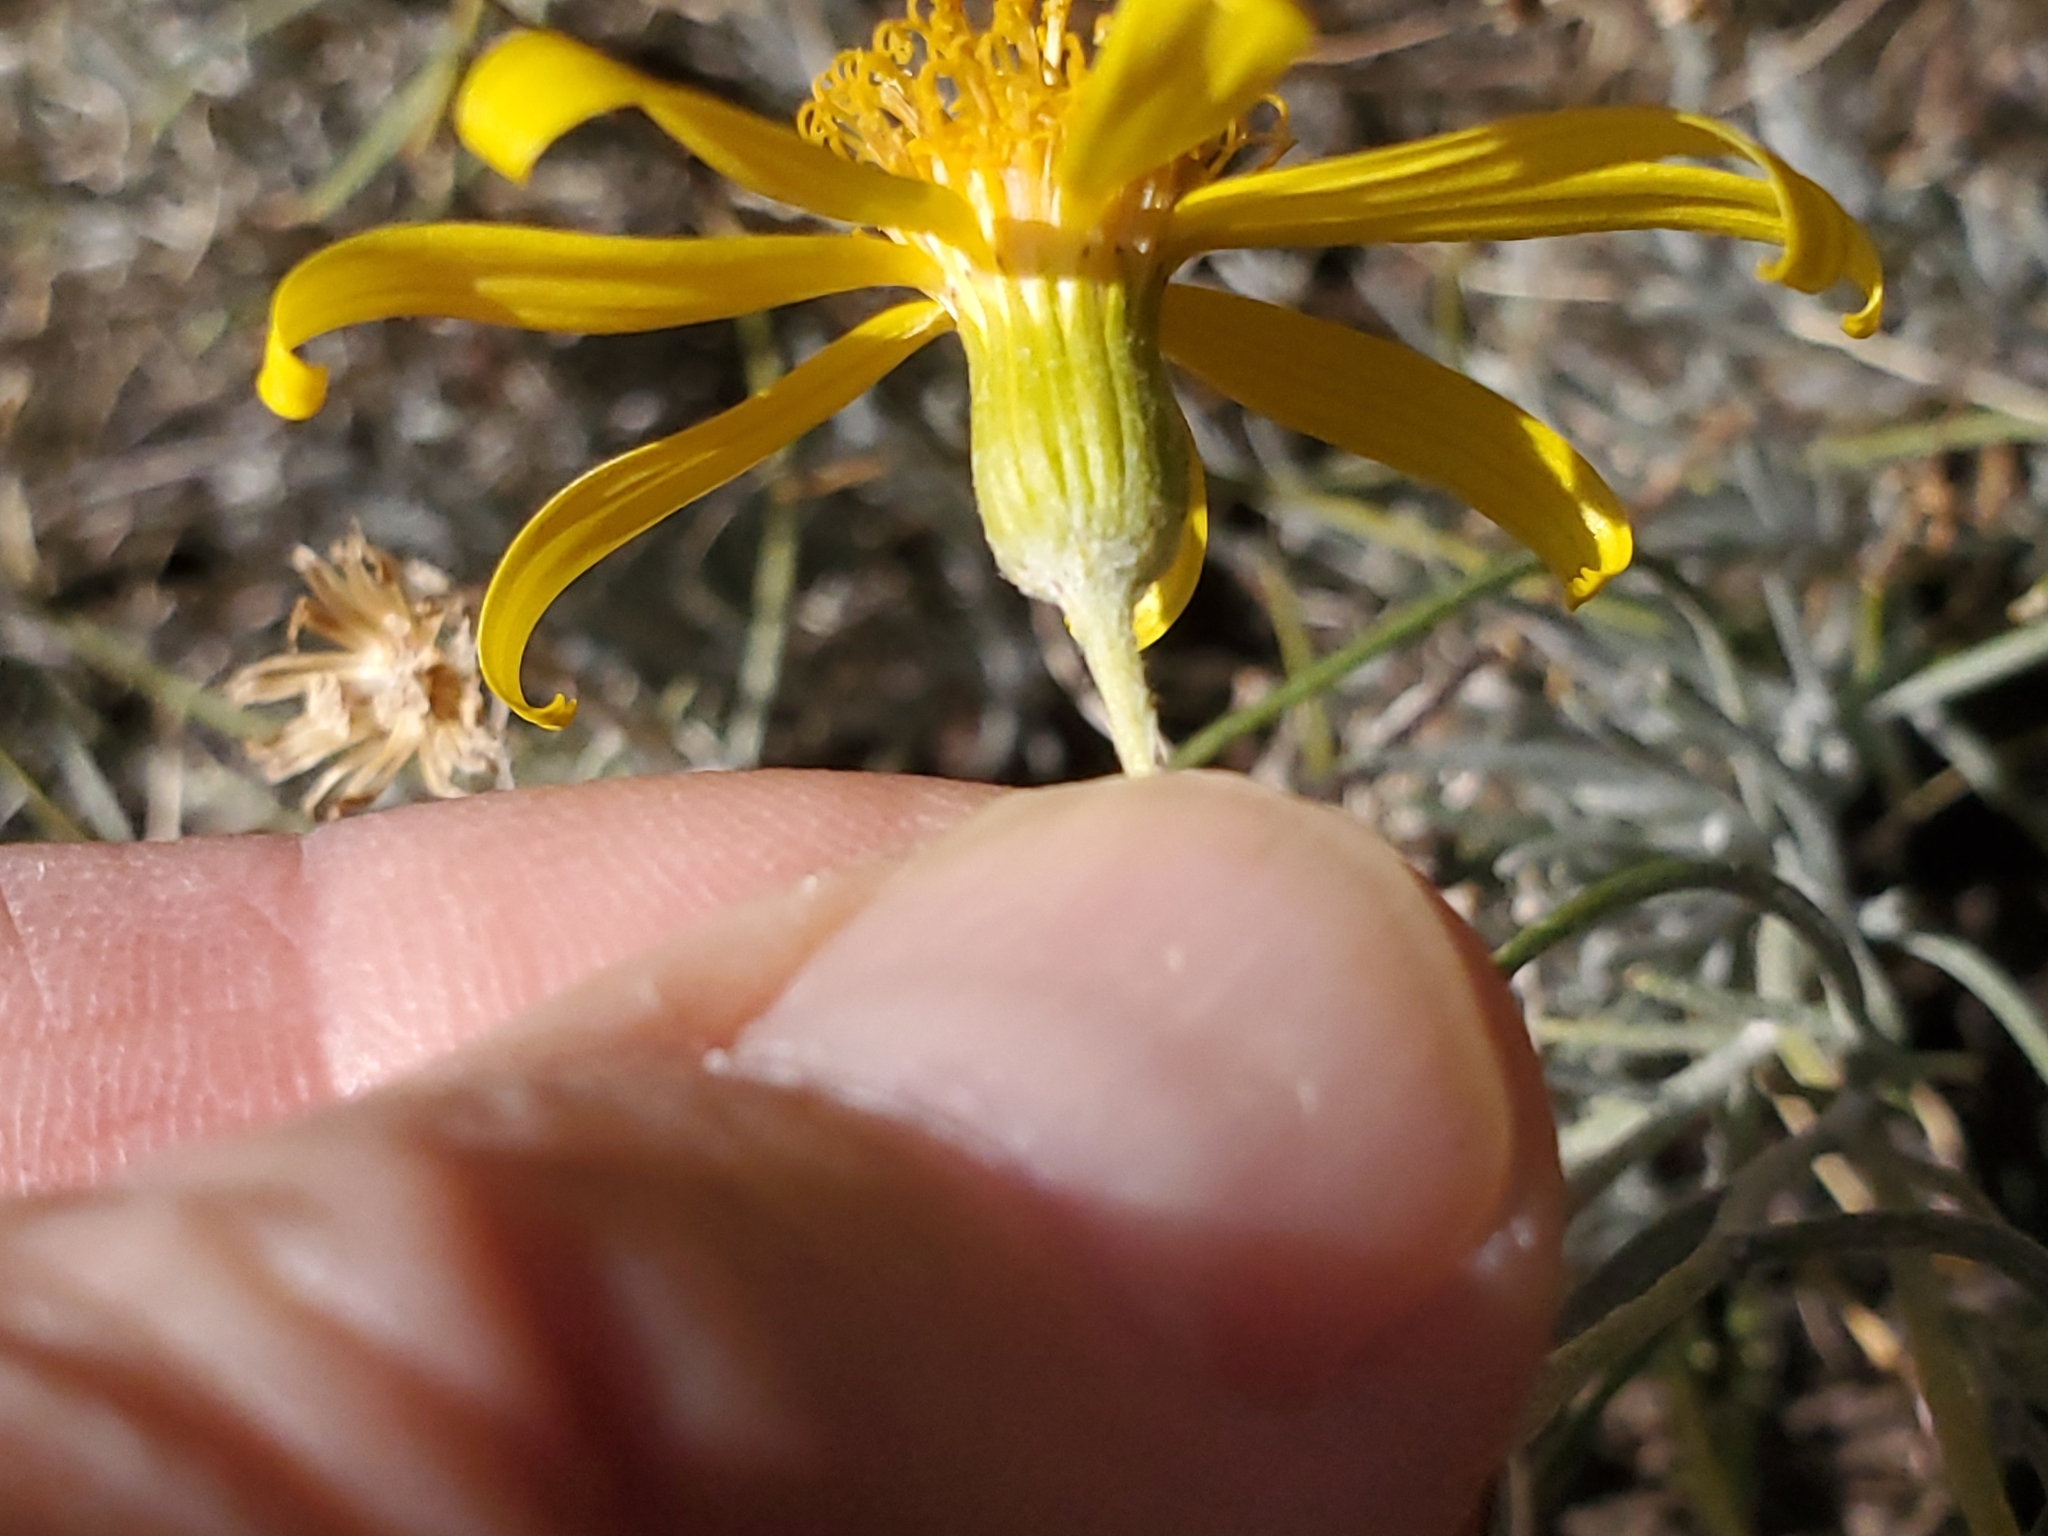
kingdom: Plantae
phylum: Tracheophyta
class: Magnoliopsida
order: Asterales
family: Asteraceae
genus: Senecio
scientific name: Senecio flaccidus
